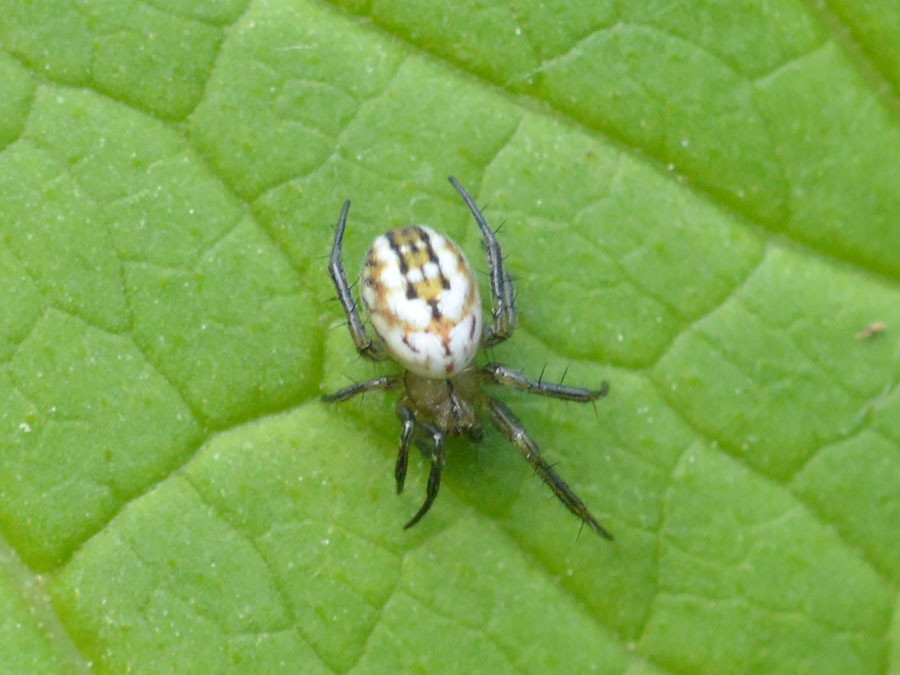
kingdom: Animalia
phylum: Arthropoda
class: Arachnida
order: Araneae
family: Araneidae
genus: Mangora
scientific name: Mangora acalypha
